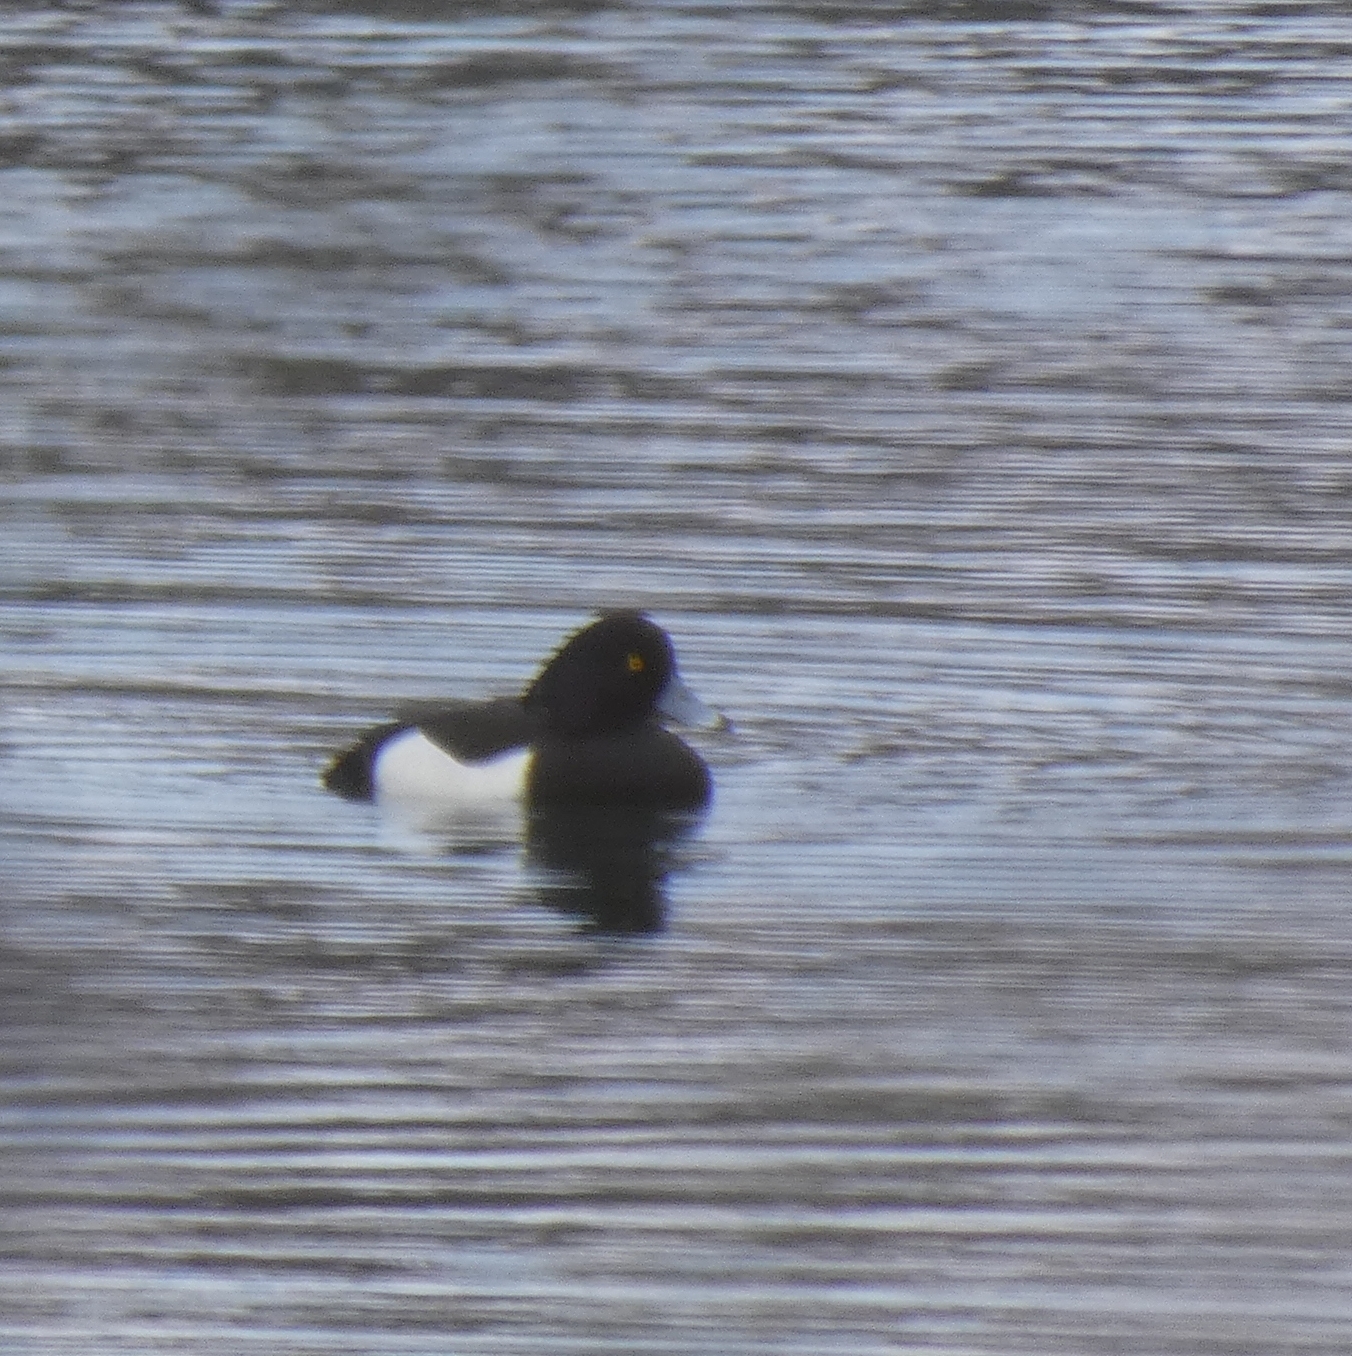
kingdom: Animalia
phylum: Chordata
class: Aves
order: Anseriformes
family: Anatidae
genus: Aythya
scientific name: Aythya fuligula
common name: Tufted duck
